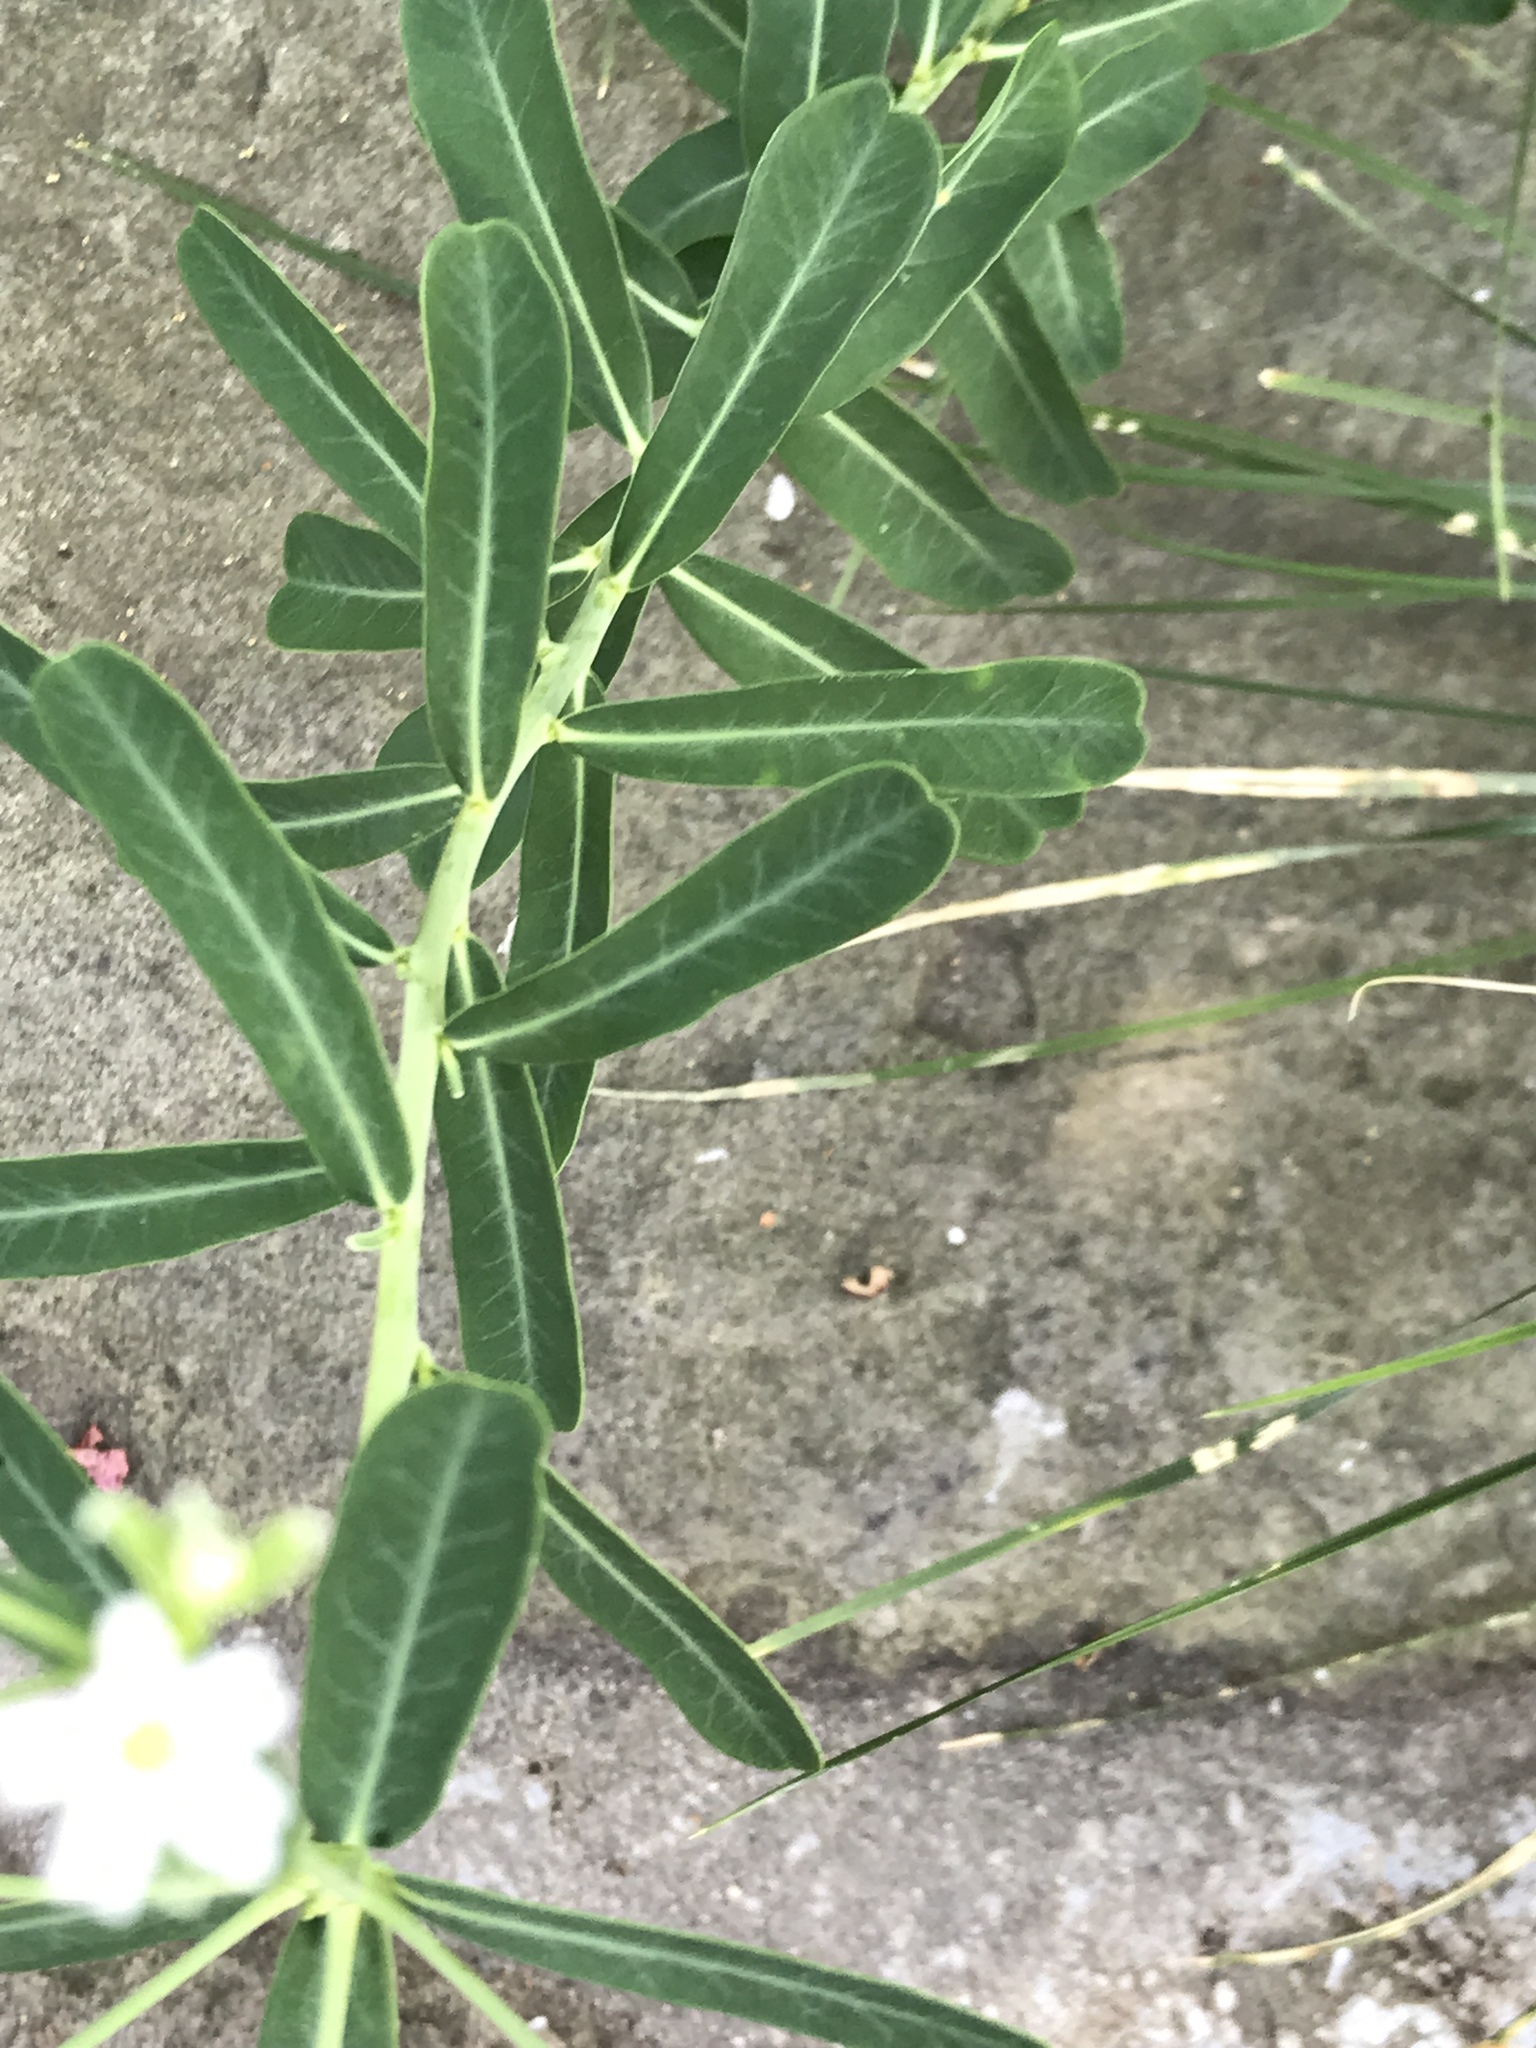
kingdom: Plantae
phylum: Tracheophyta
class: Magnoliopsida
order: Malpighiales
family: Euphorbiaceae
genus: Euphorbia
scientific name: Euphorbia corollata
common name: Flowering spurge
